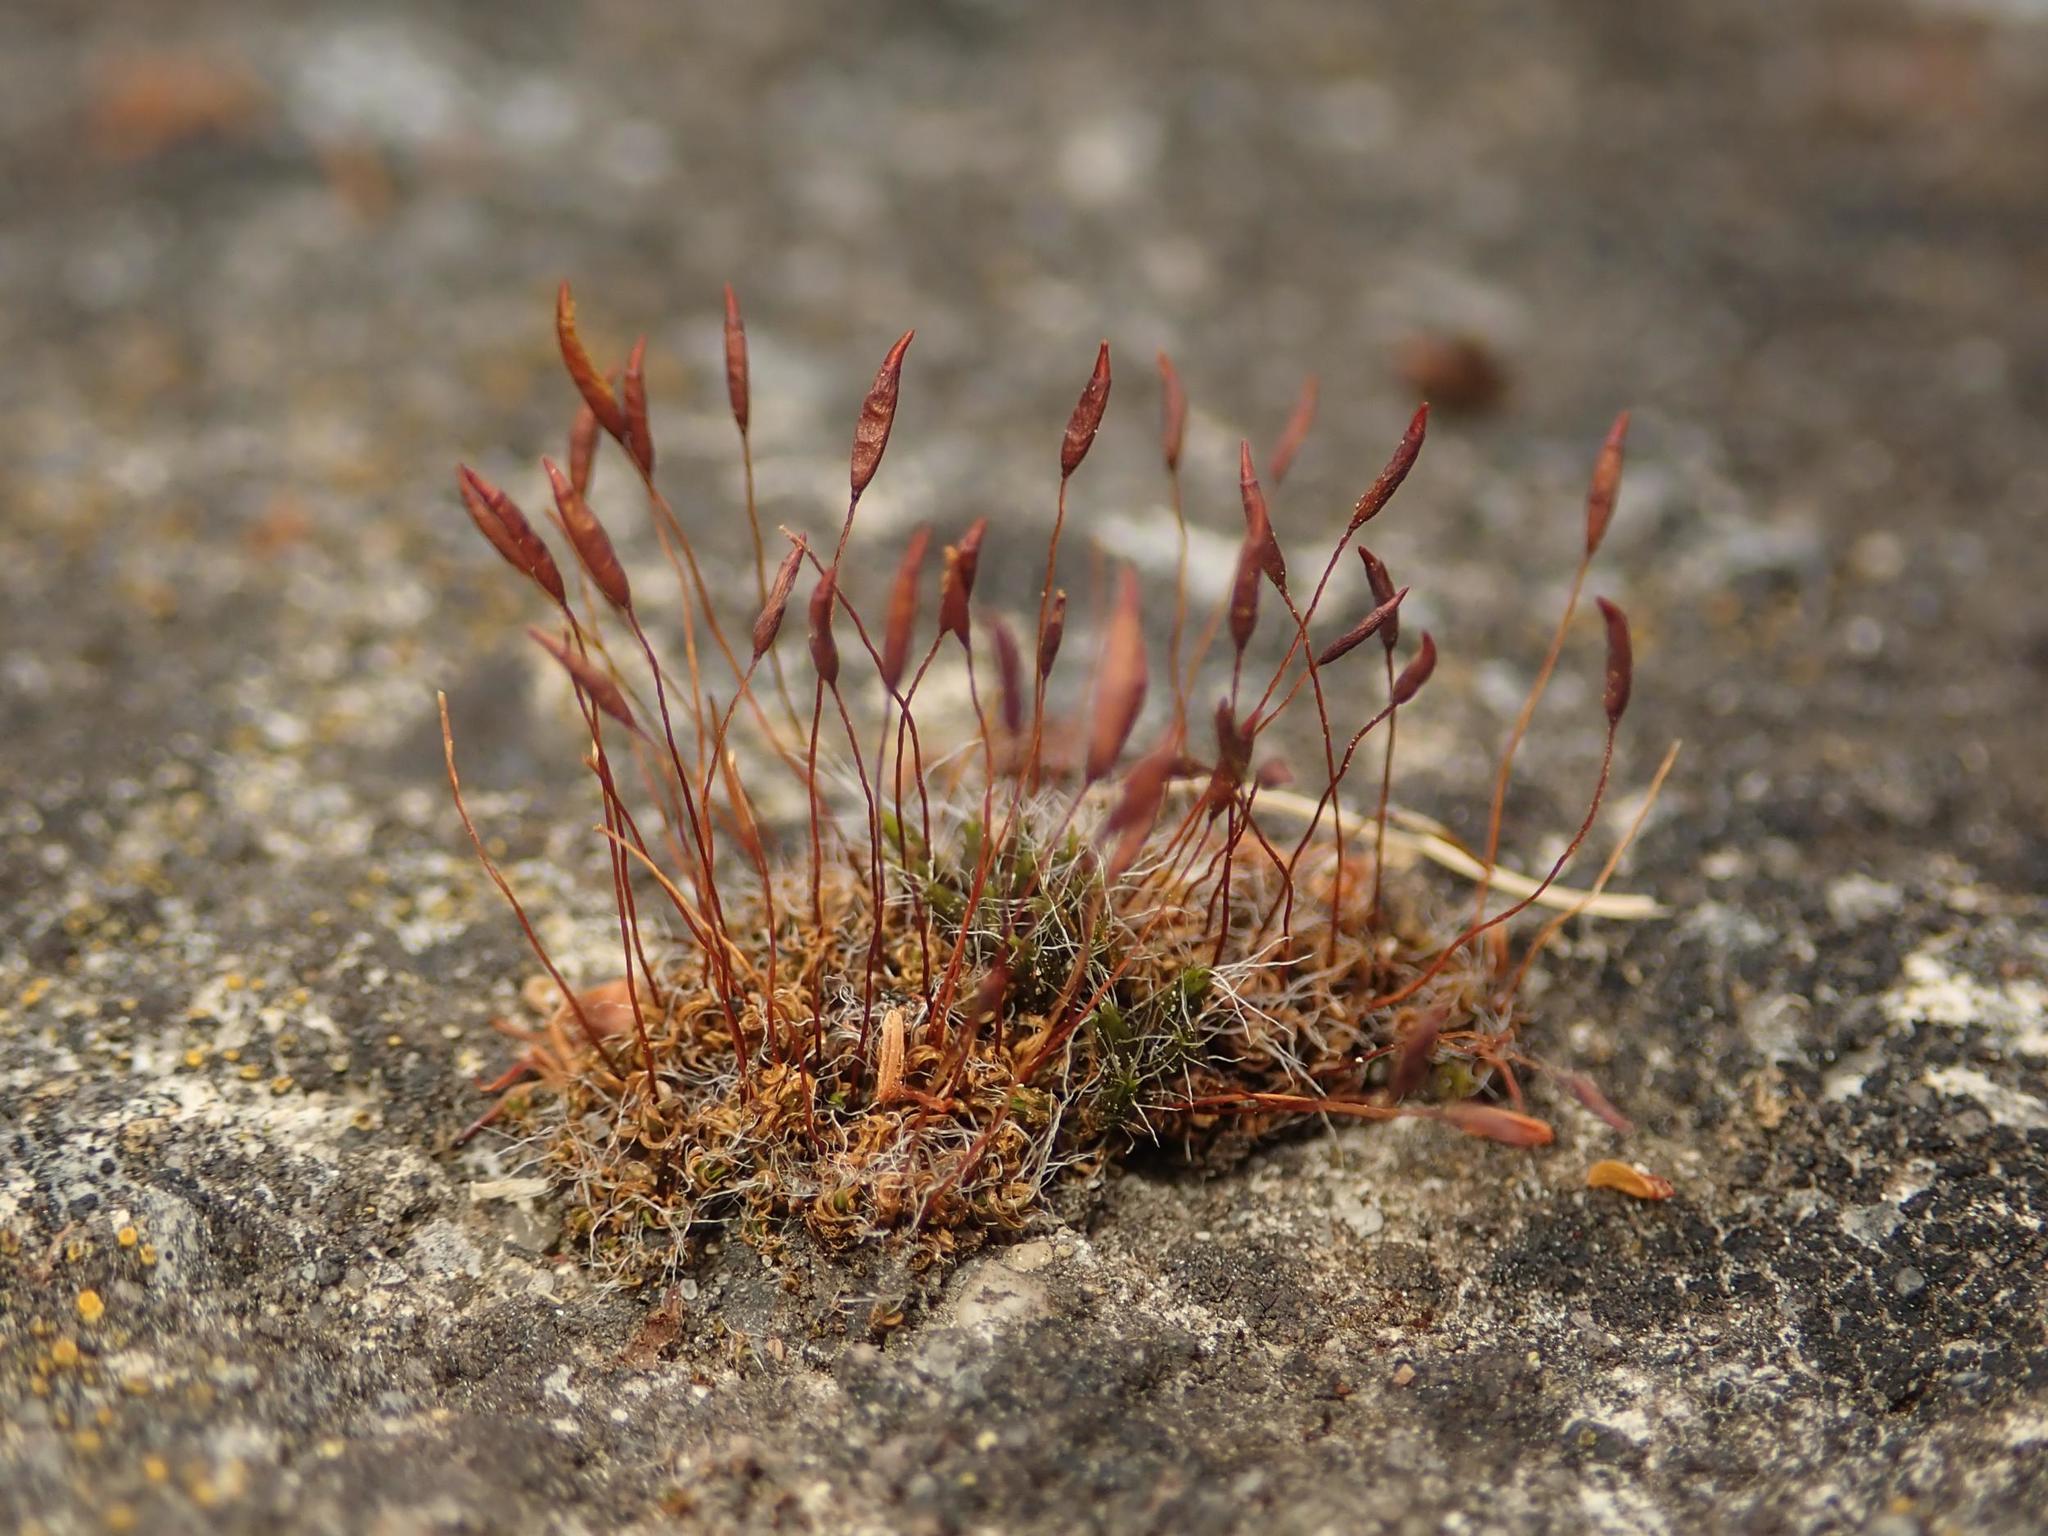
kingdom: Plantae
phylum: Bryophyta
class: Bryopsida
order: Pottiales
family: Pottiaceae
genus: Tortula
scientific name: Tortula muralis
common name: Wall screw-moss
